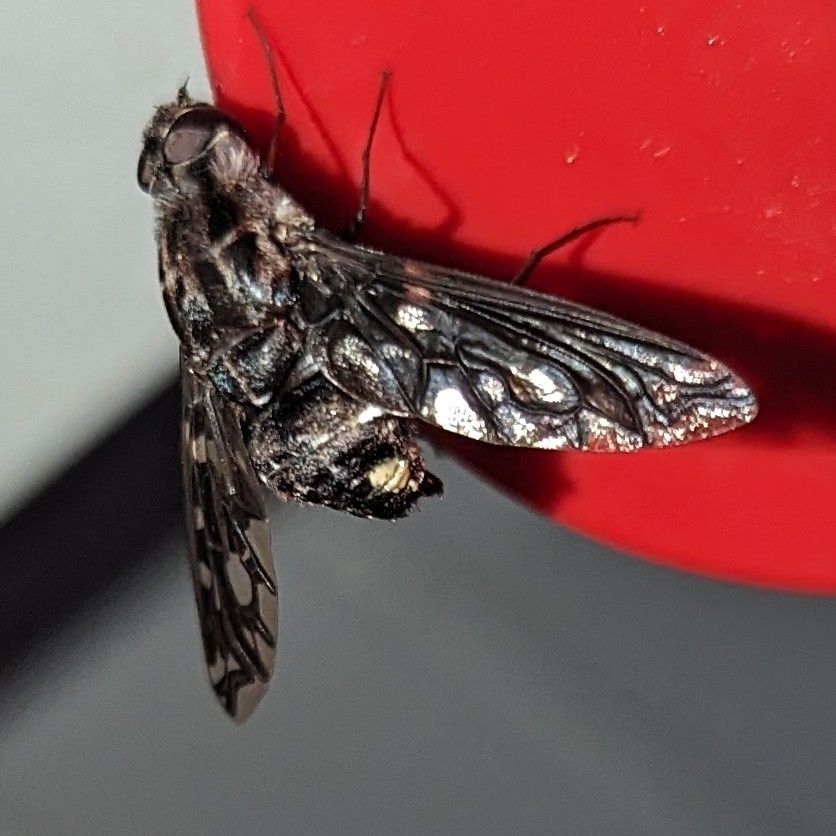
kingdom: Animalia
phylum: Arthropoda
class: Insecta
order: Diptera
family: Bombyliidae
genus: Xenox
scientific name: Xenox tigrinus
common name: Tiger bee fly
